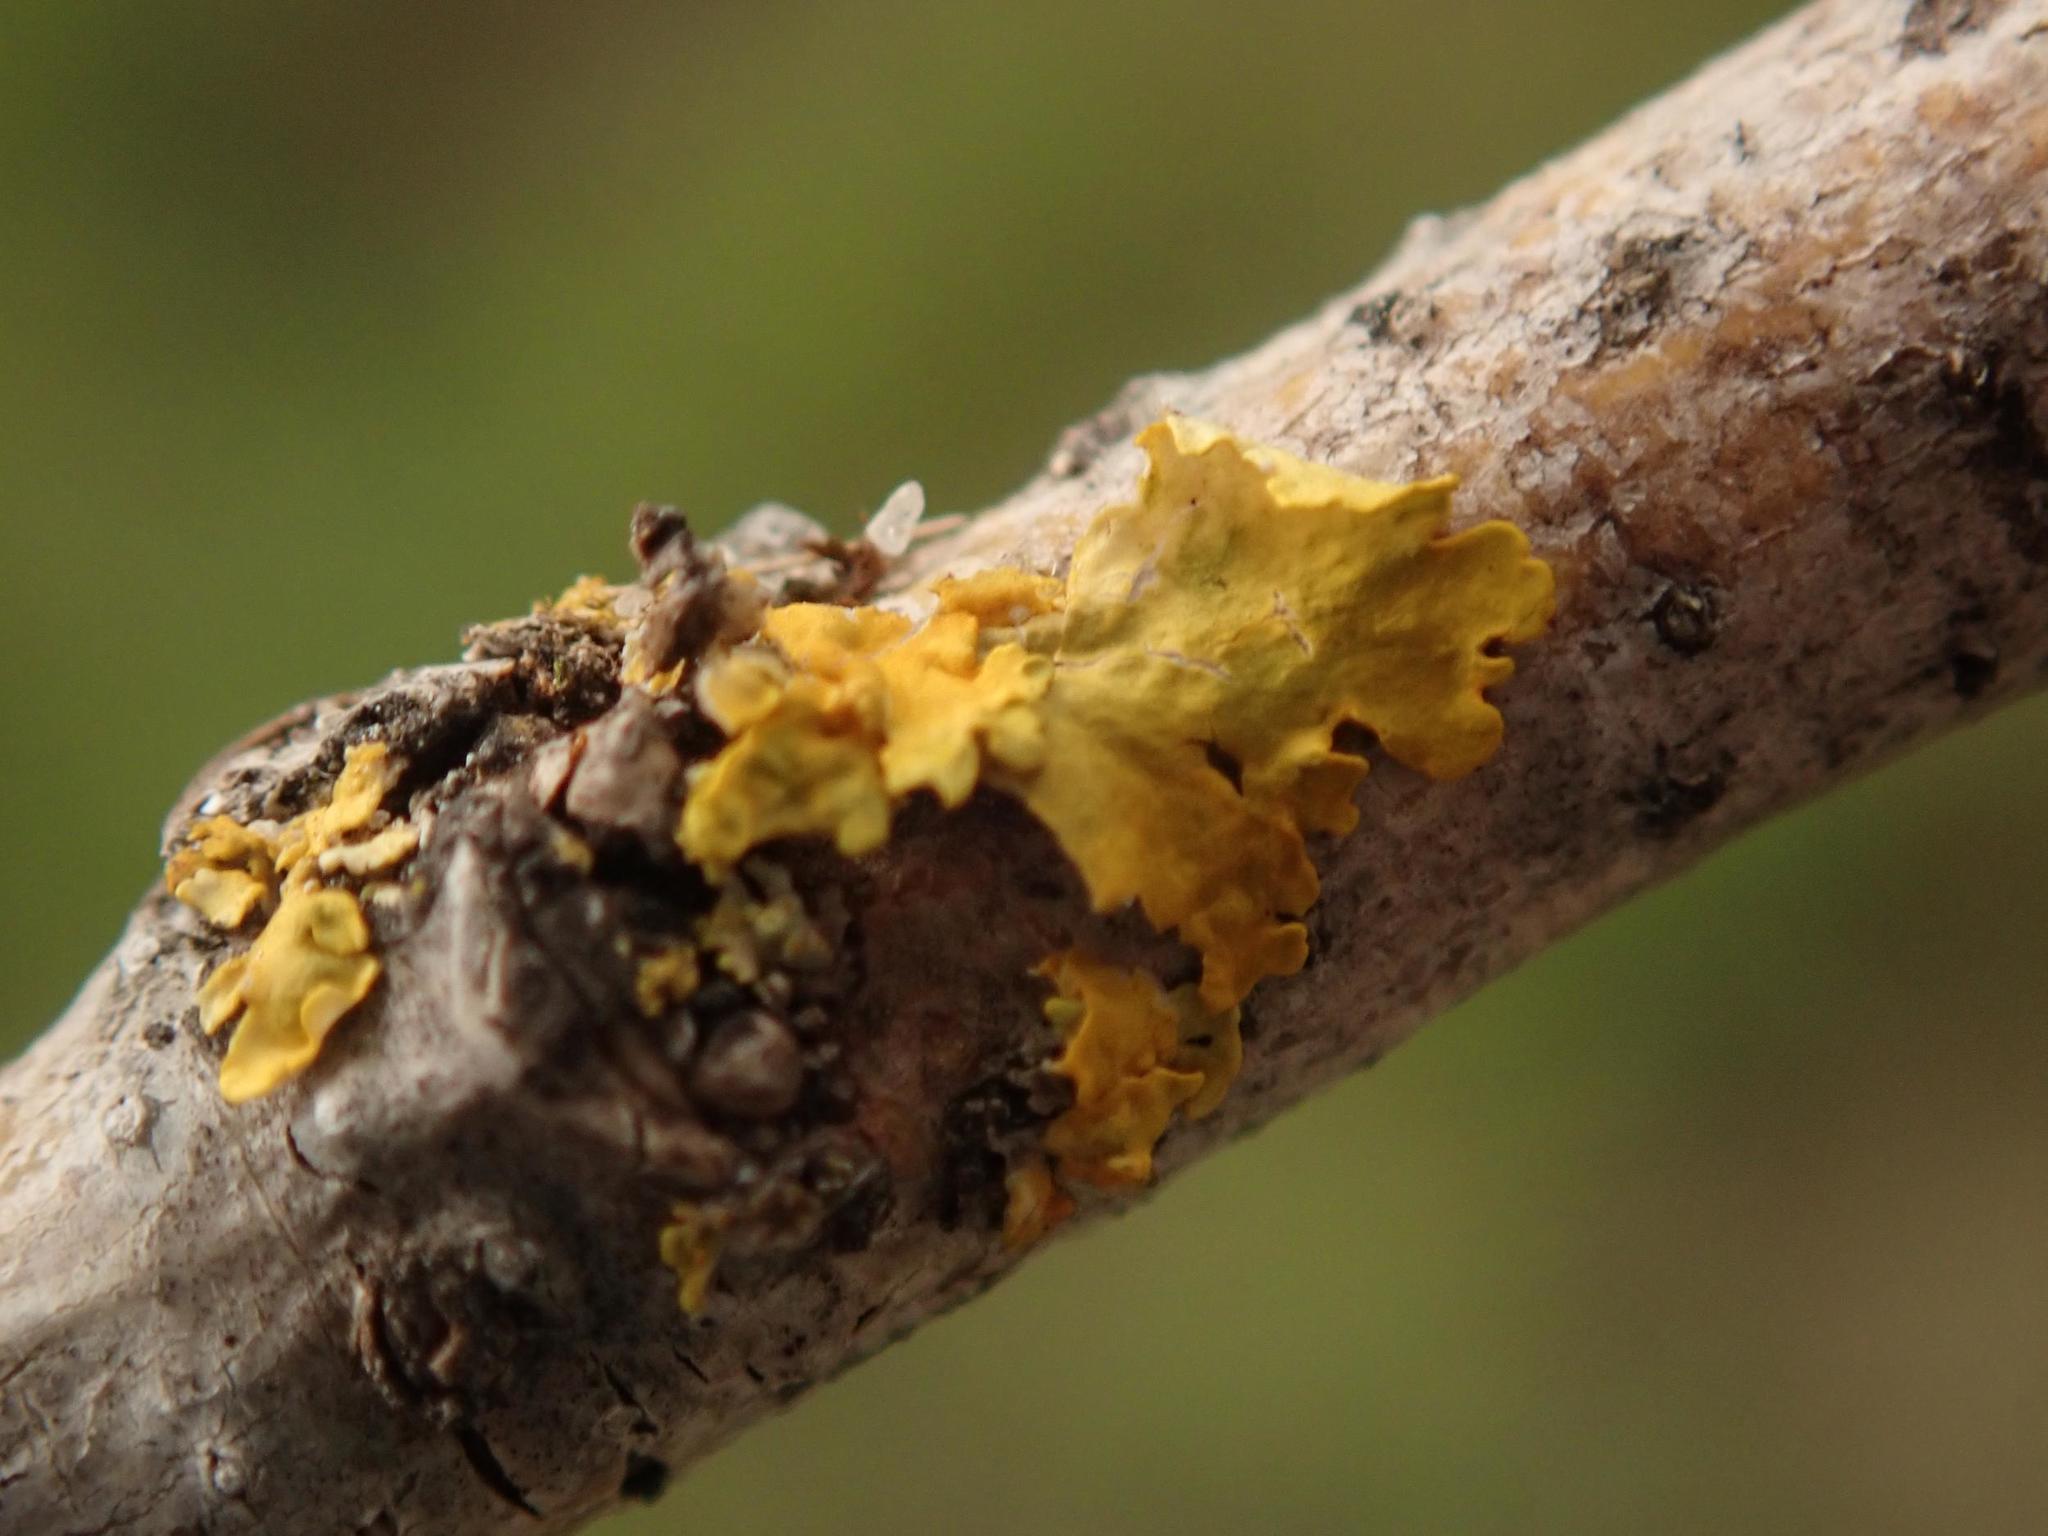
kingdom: Fungi
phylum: Ascomycota
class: Lecanoromycetes
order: Teloschistales
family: Teloschistaceae
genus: Xanthoria
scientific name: Xanthoria parietina
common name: Common orange lichen
